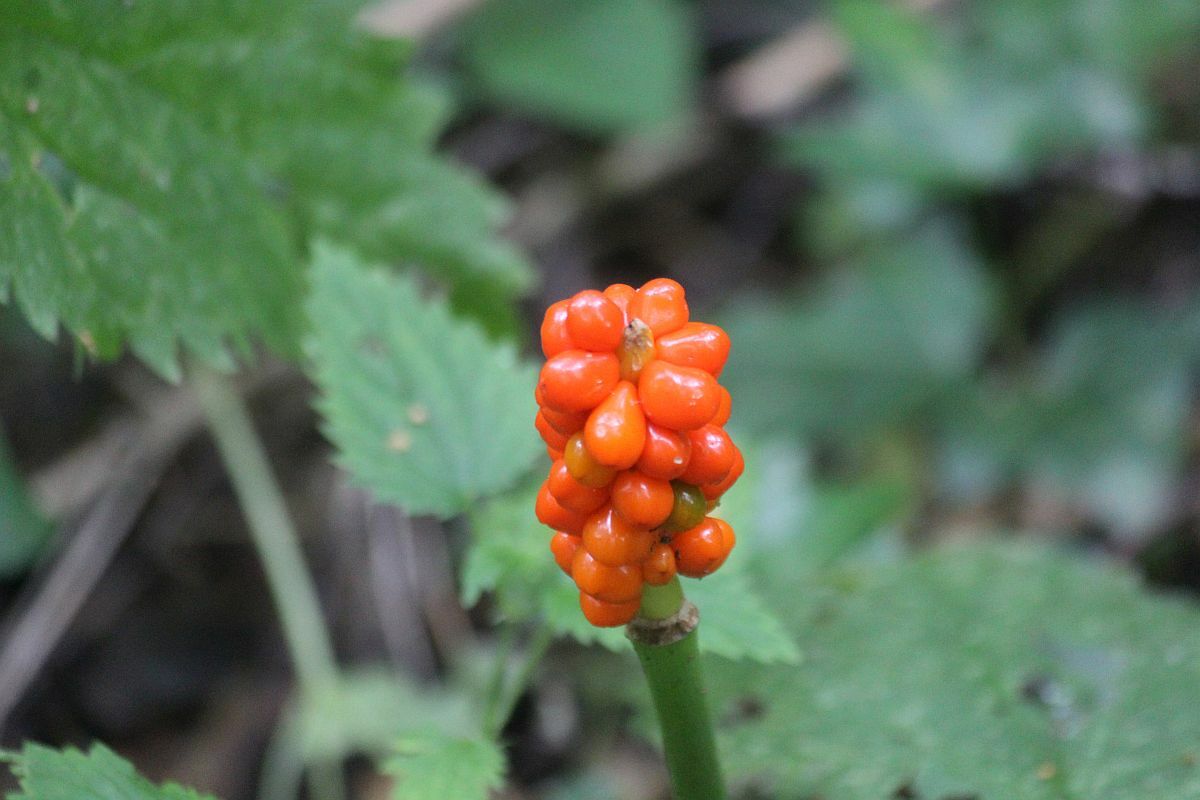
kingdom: Plantae
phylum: Tracheophyta
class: Liliopsida
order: Alismatales
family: Araceae
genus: Arum
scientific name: Arum maculatum
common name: Lords-and-ladies
